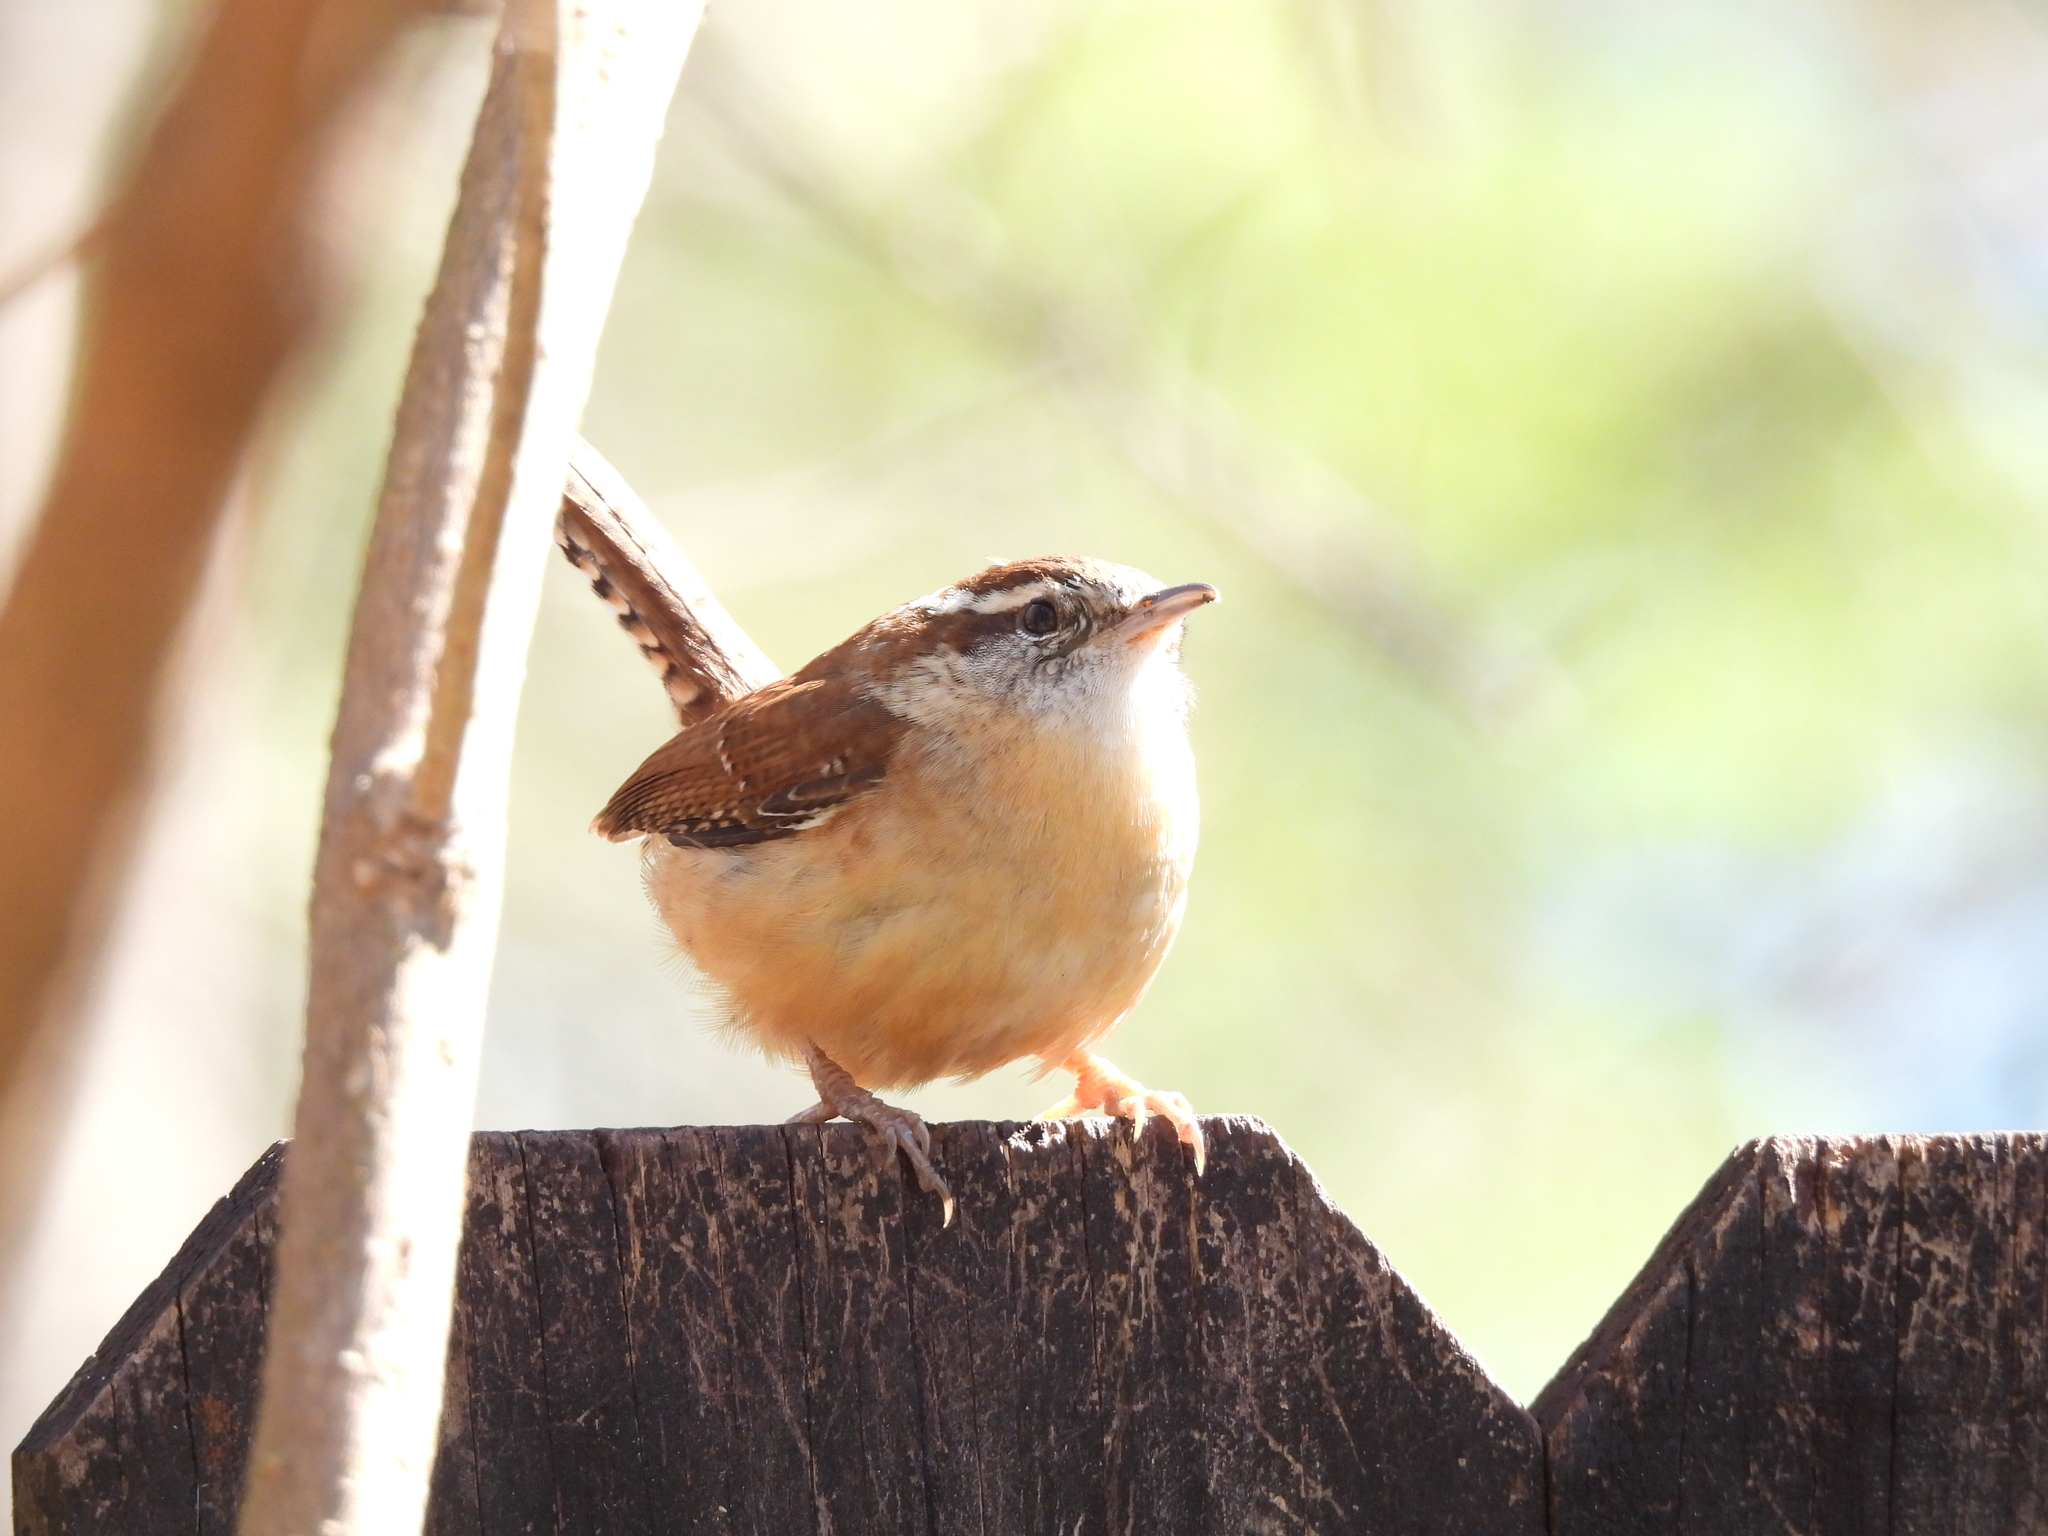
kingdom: Animalia
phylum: Chordata
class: Aves
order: Passeriformes
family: Troglodytidae
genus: Thryothorus
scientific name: Thryothorus ludovicianus
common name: Carolina wren
